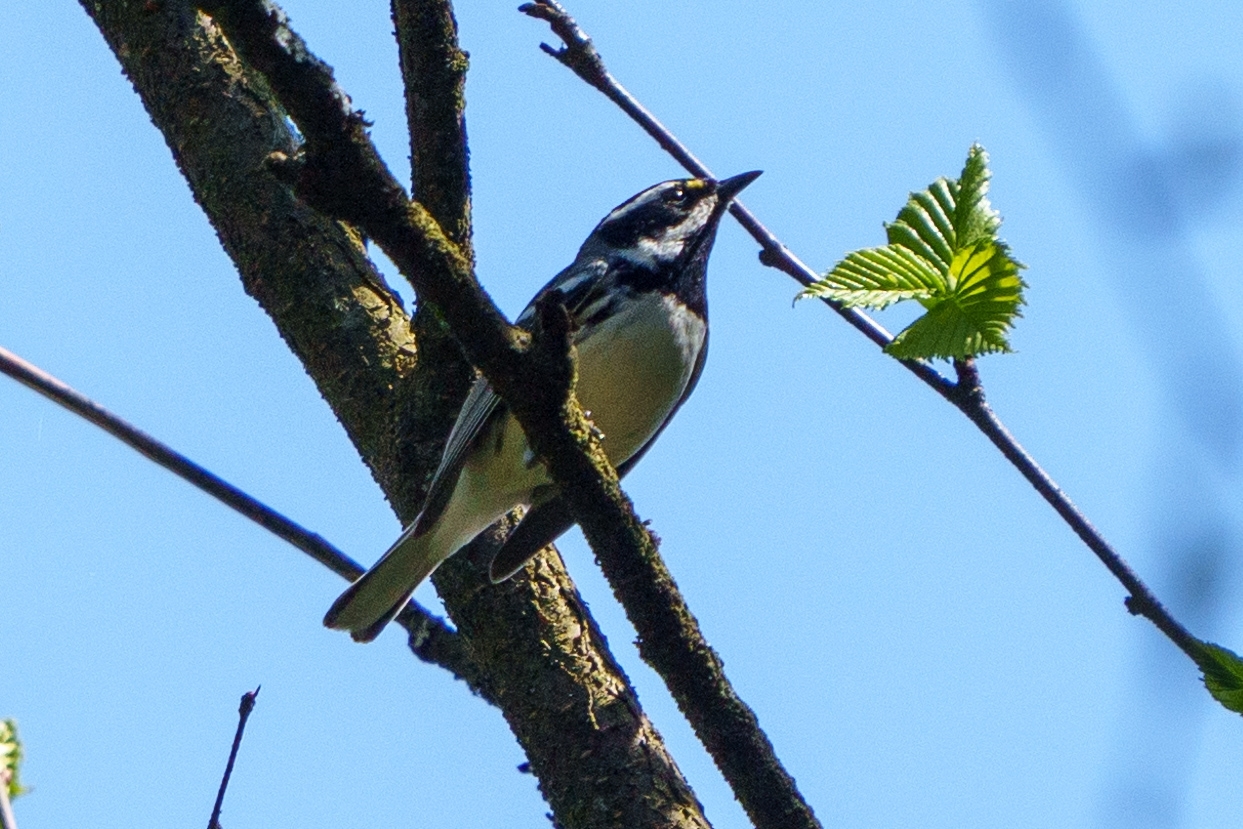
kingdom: Animalia
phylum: Chordata
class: Aves
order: Passeriformes
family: Parulidae
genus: Setophaga
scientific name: Setophaga nigrescens
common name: Black-throated gray warbler
